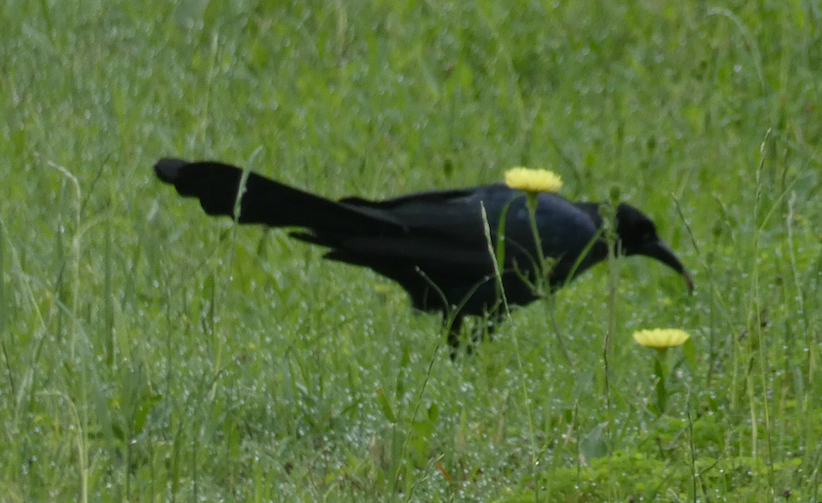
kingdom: Animalia
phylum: Chordata
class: Aves
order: Passeriformes
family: Icteridae
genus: Quiscalus
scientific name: Quiscalus mexicanus
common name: Great-tailed grackle
